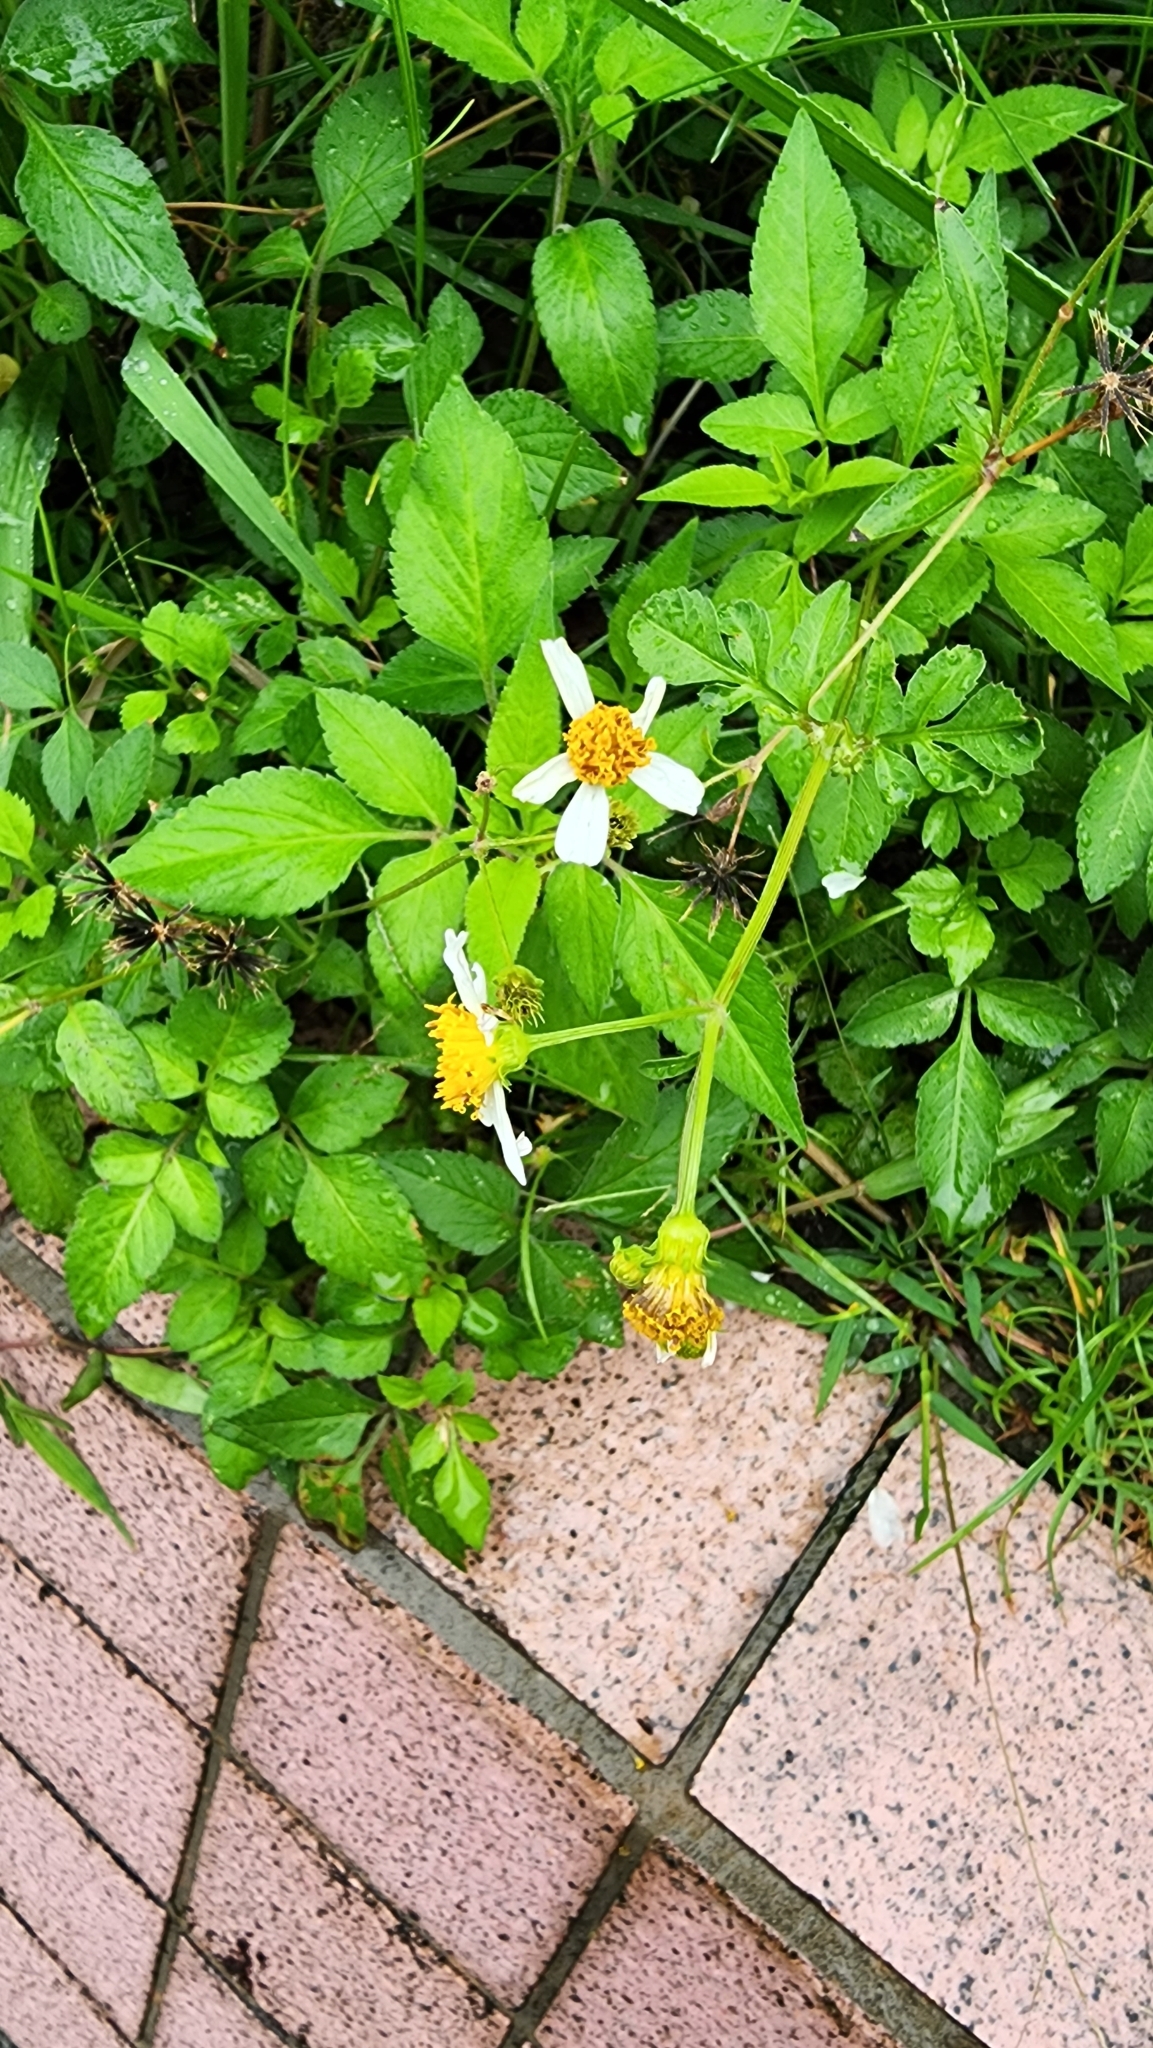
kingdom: Plantae
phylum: Tracheophyta
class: Magnoliopsida
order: Asterales
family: Asteraceae
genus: Bidens
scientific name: Bidens alba
